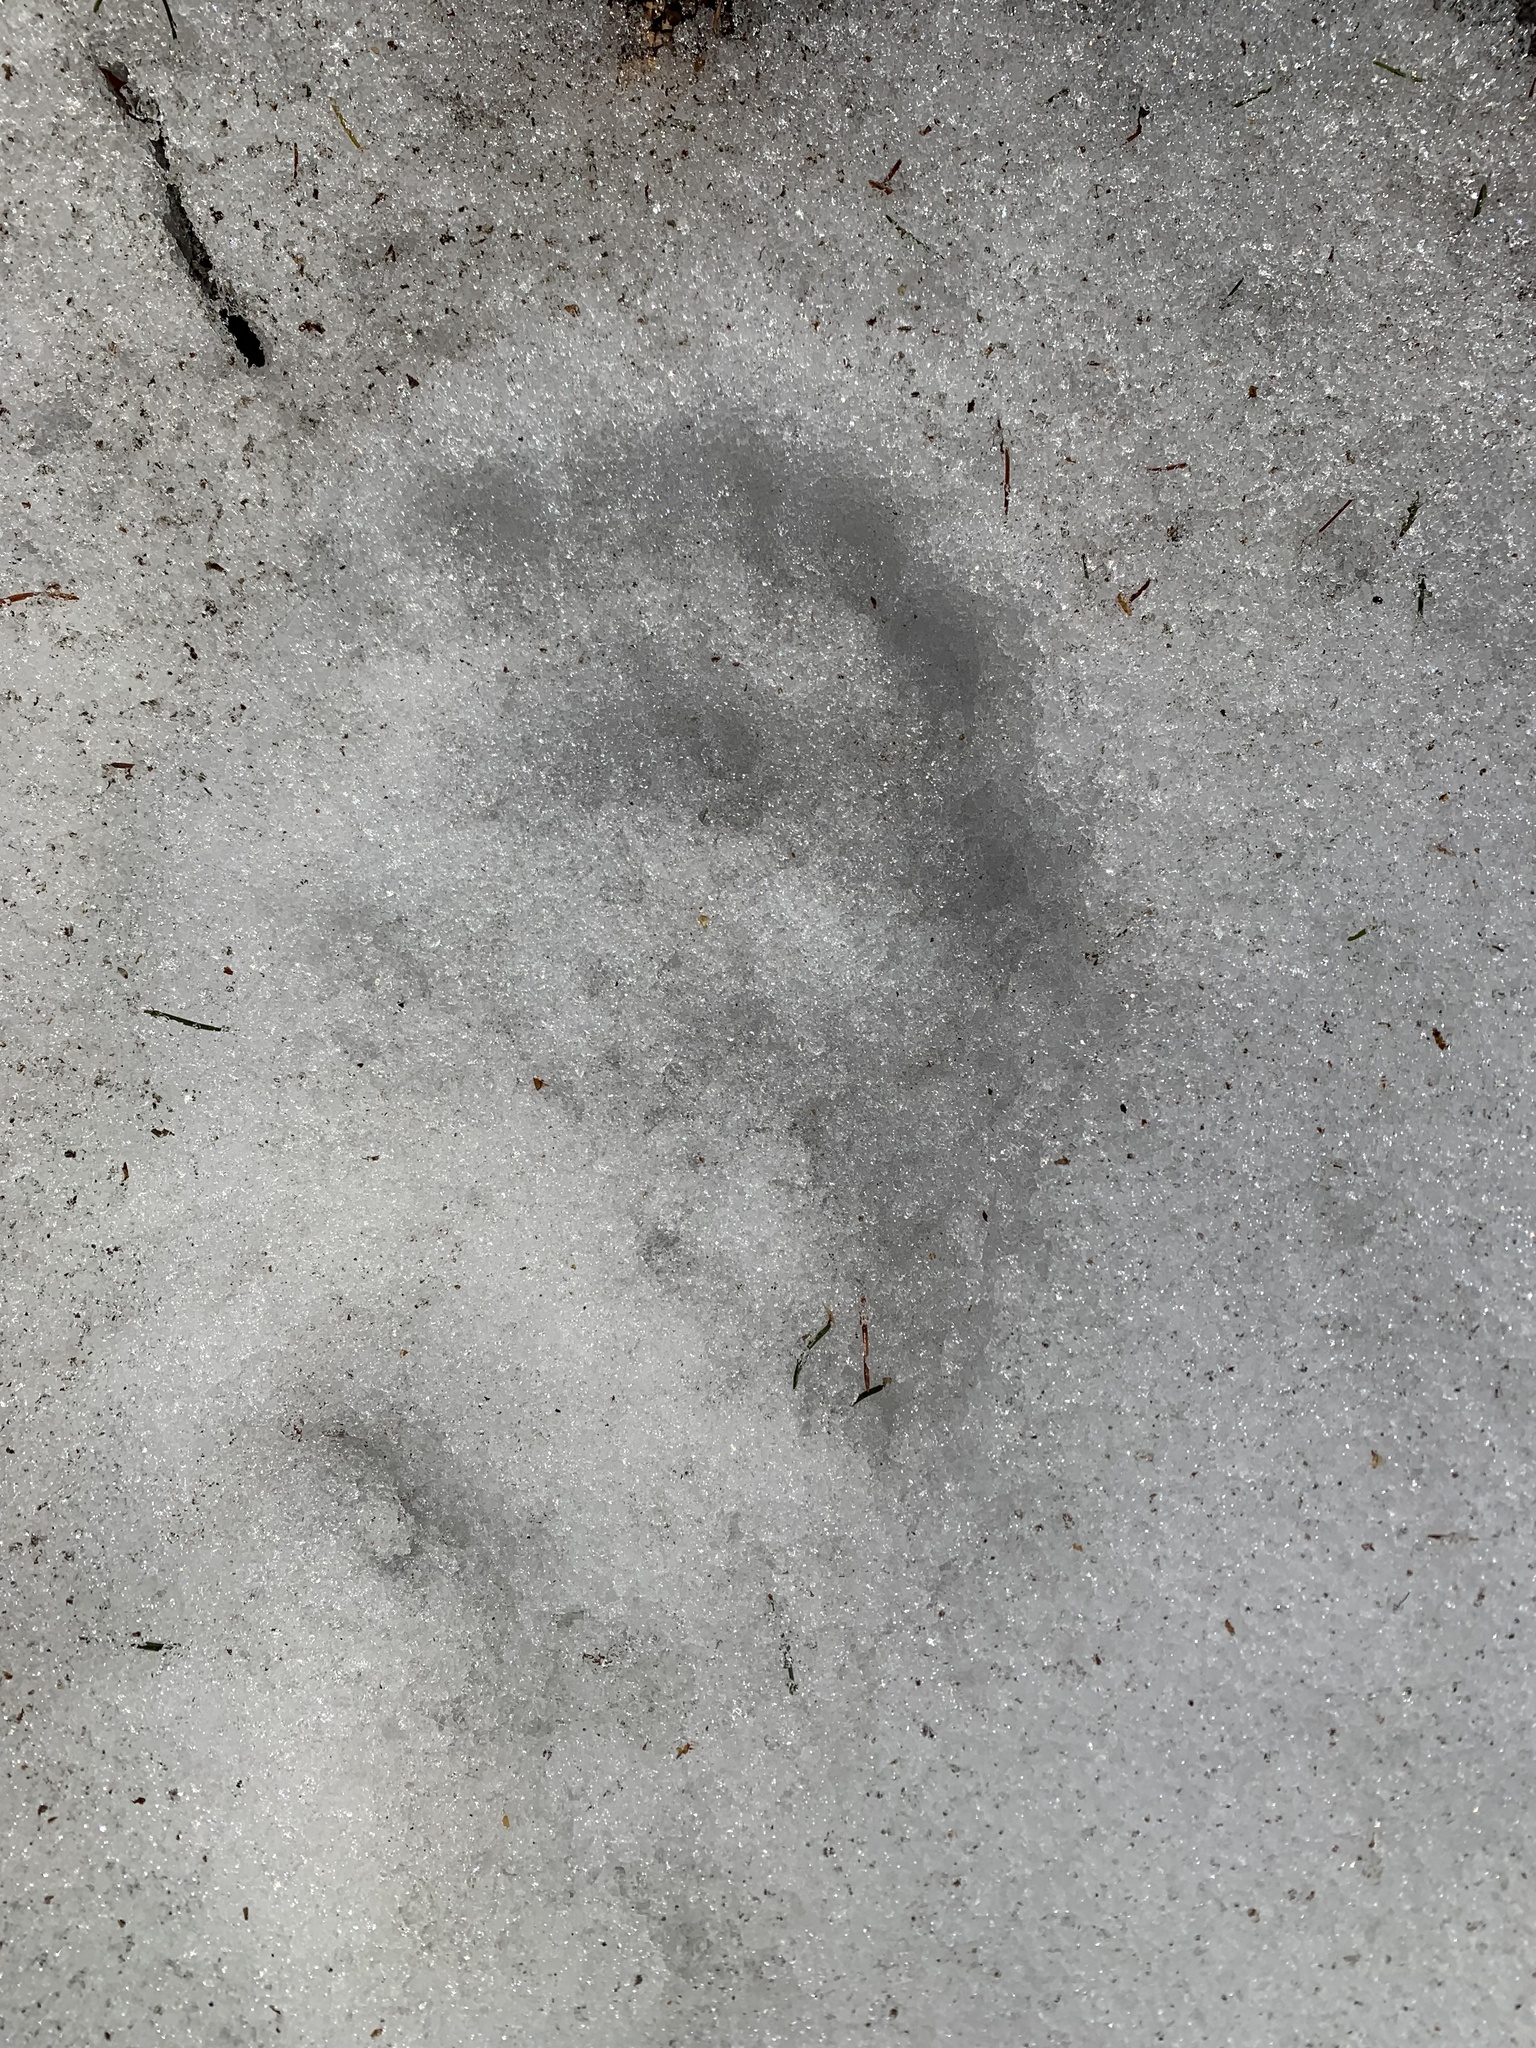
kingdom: Animalia
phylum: Chordata
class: Mammalia
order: Carnivora
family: Ursidae
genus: Ursus
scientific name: Ursus arctos
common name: Brown bear
